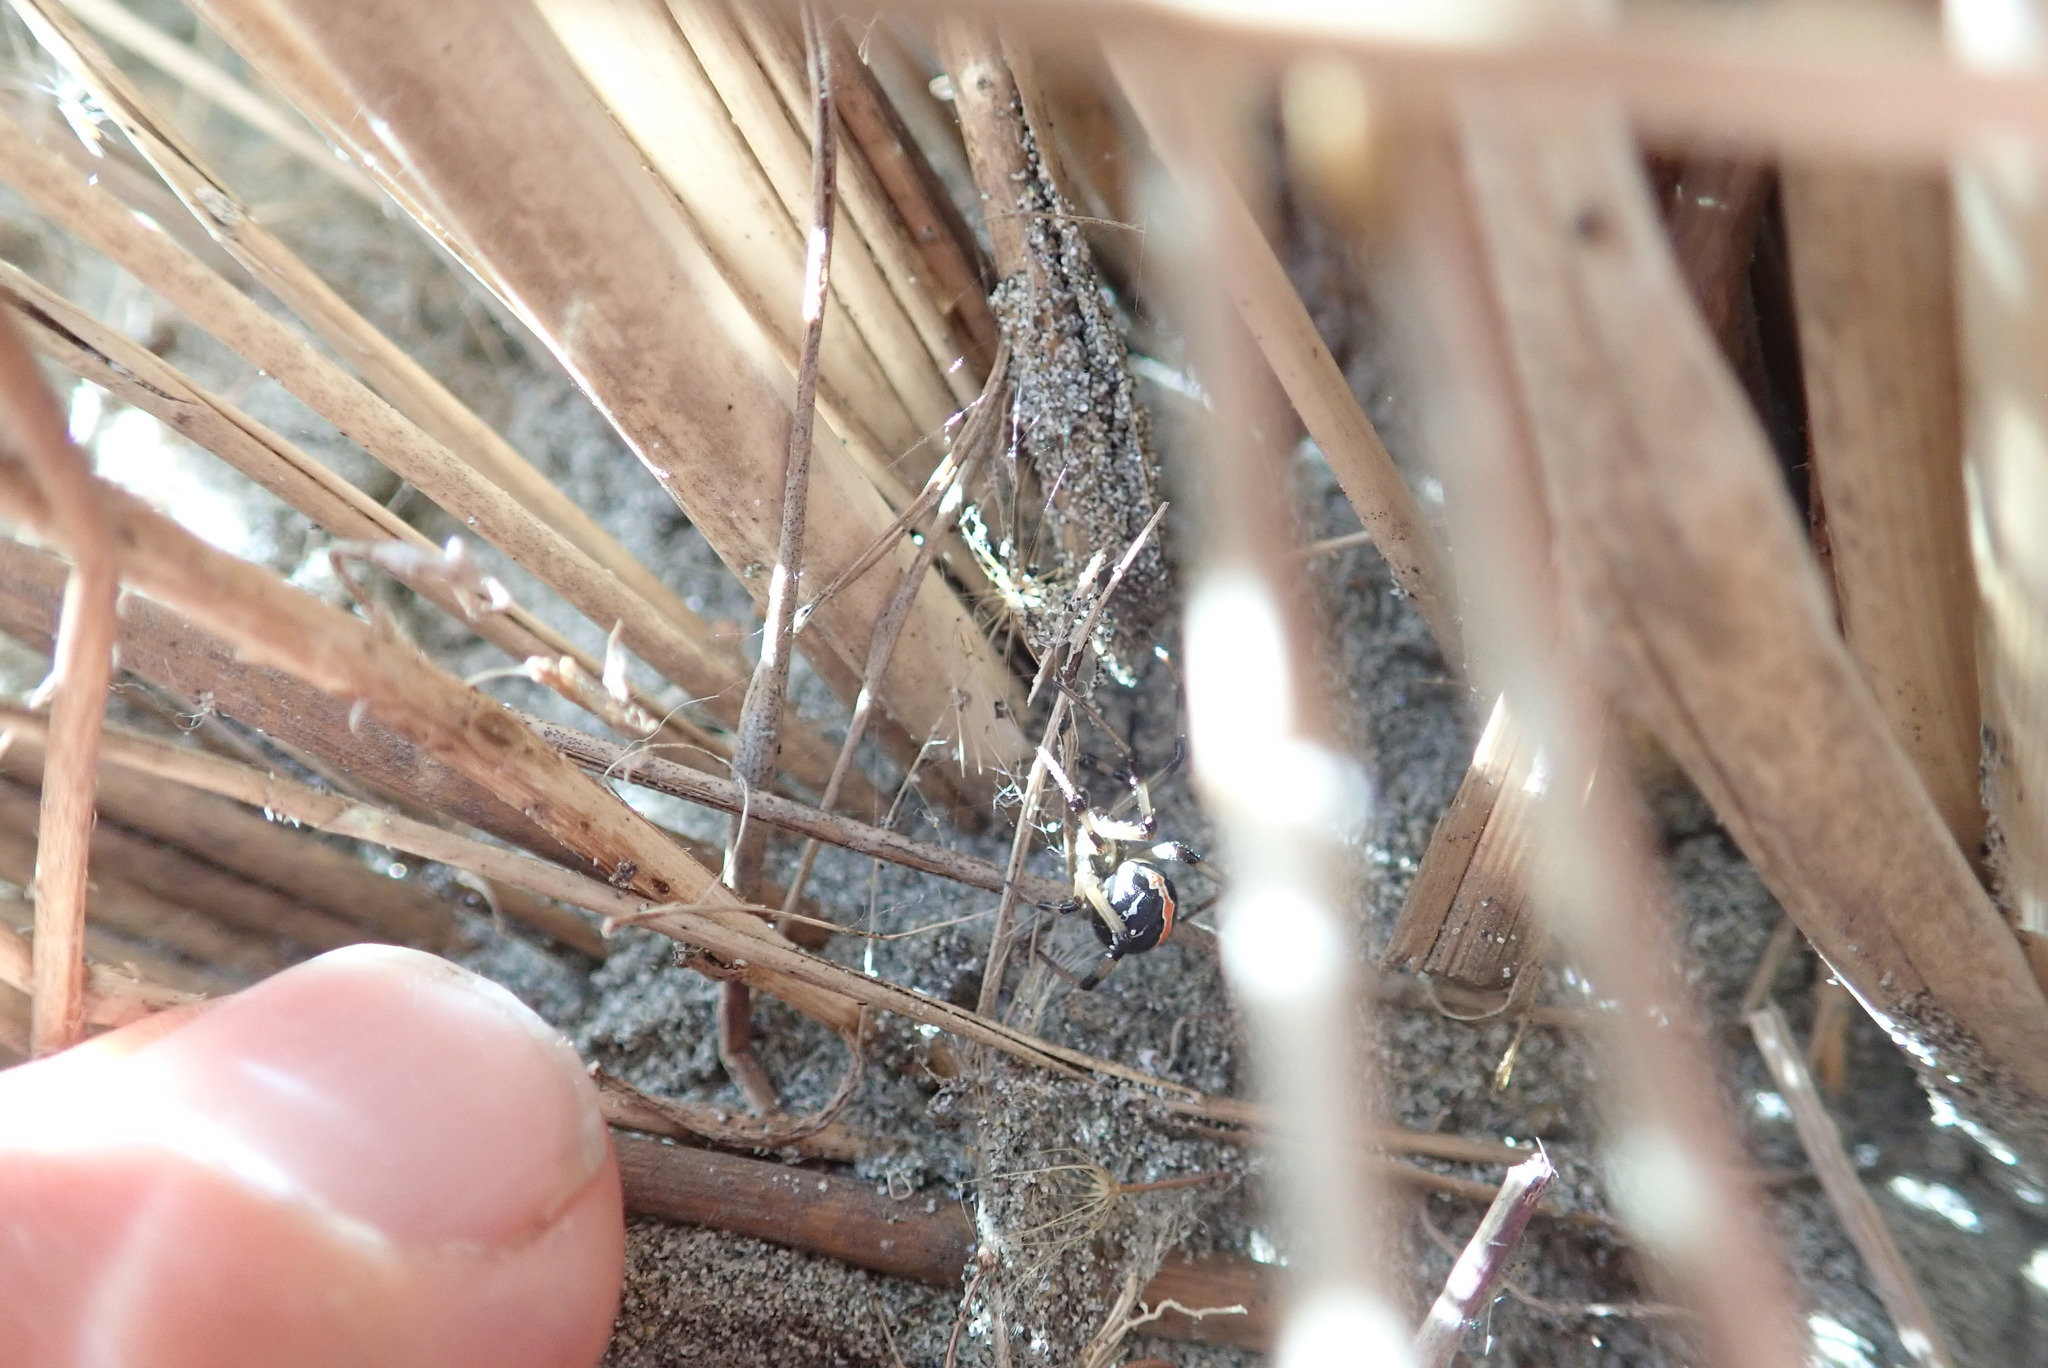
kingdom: Animalia
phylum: Arthropoda
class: Arachnida
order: Araneae
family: Thomisidae
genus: Sidymella
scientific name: Sidymella trapezia
